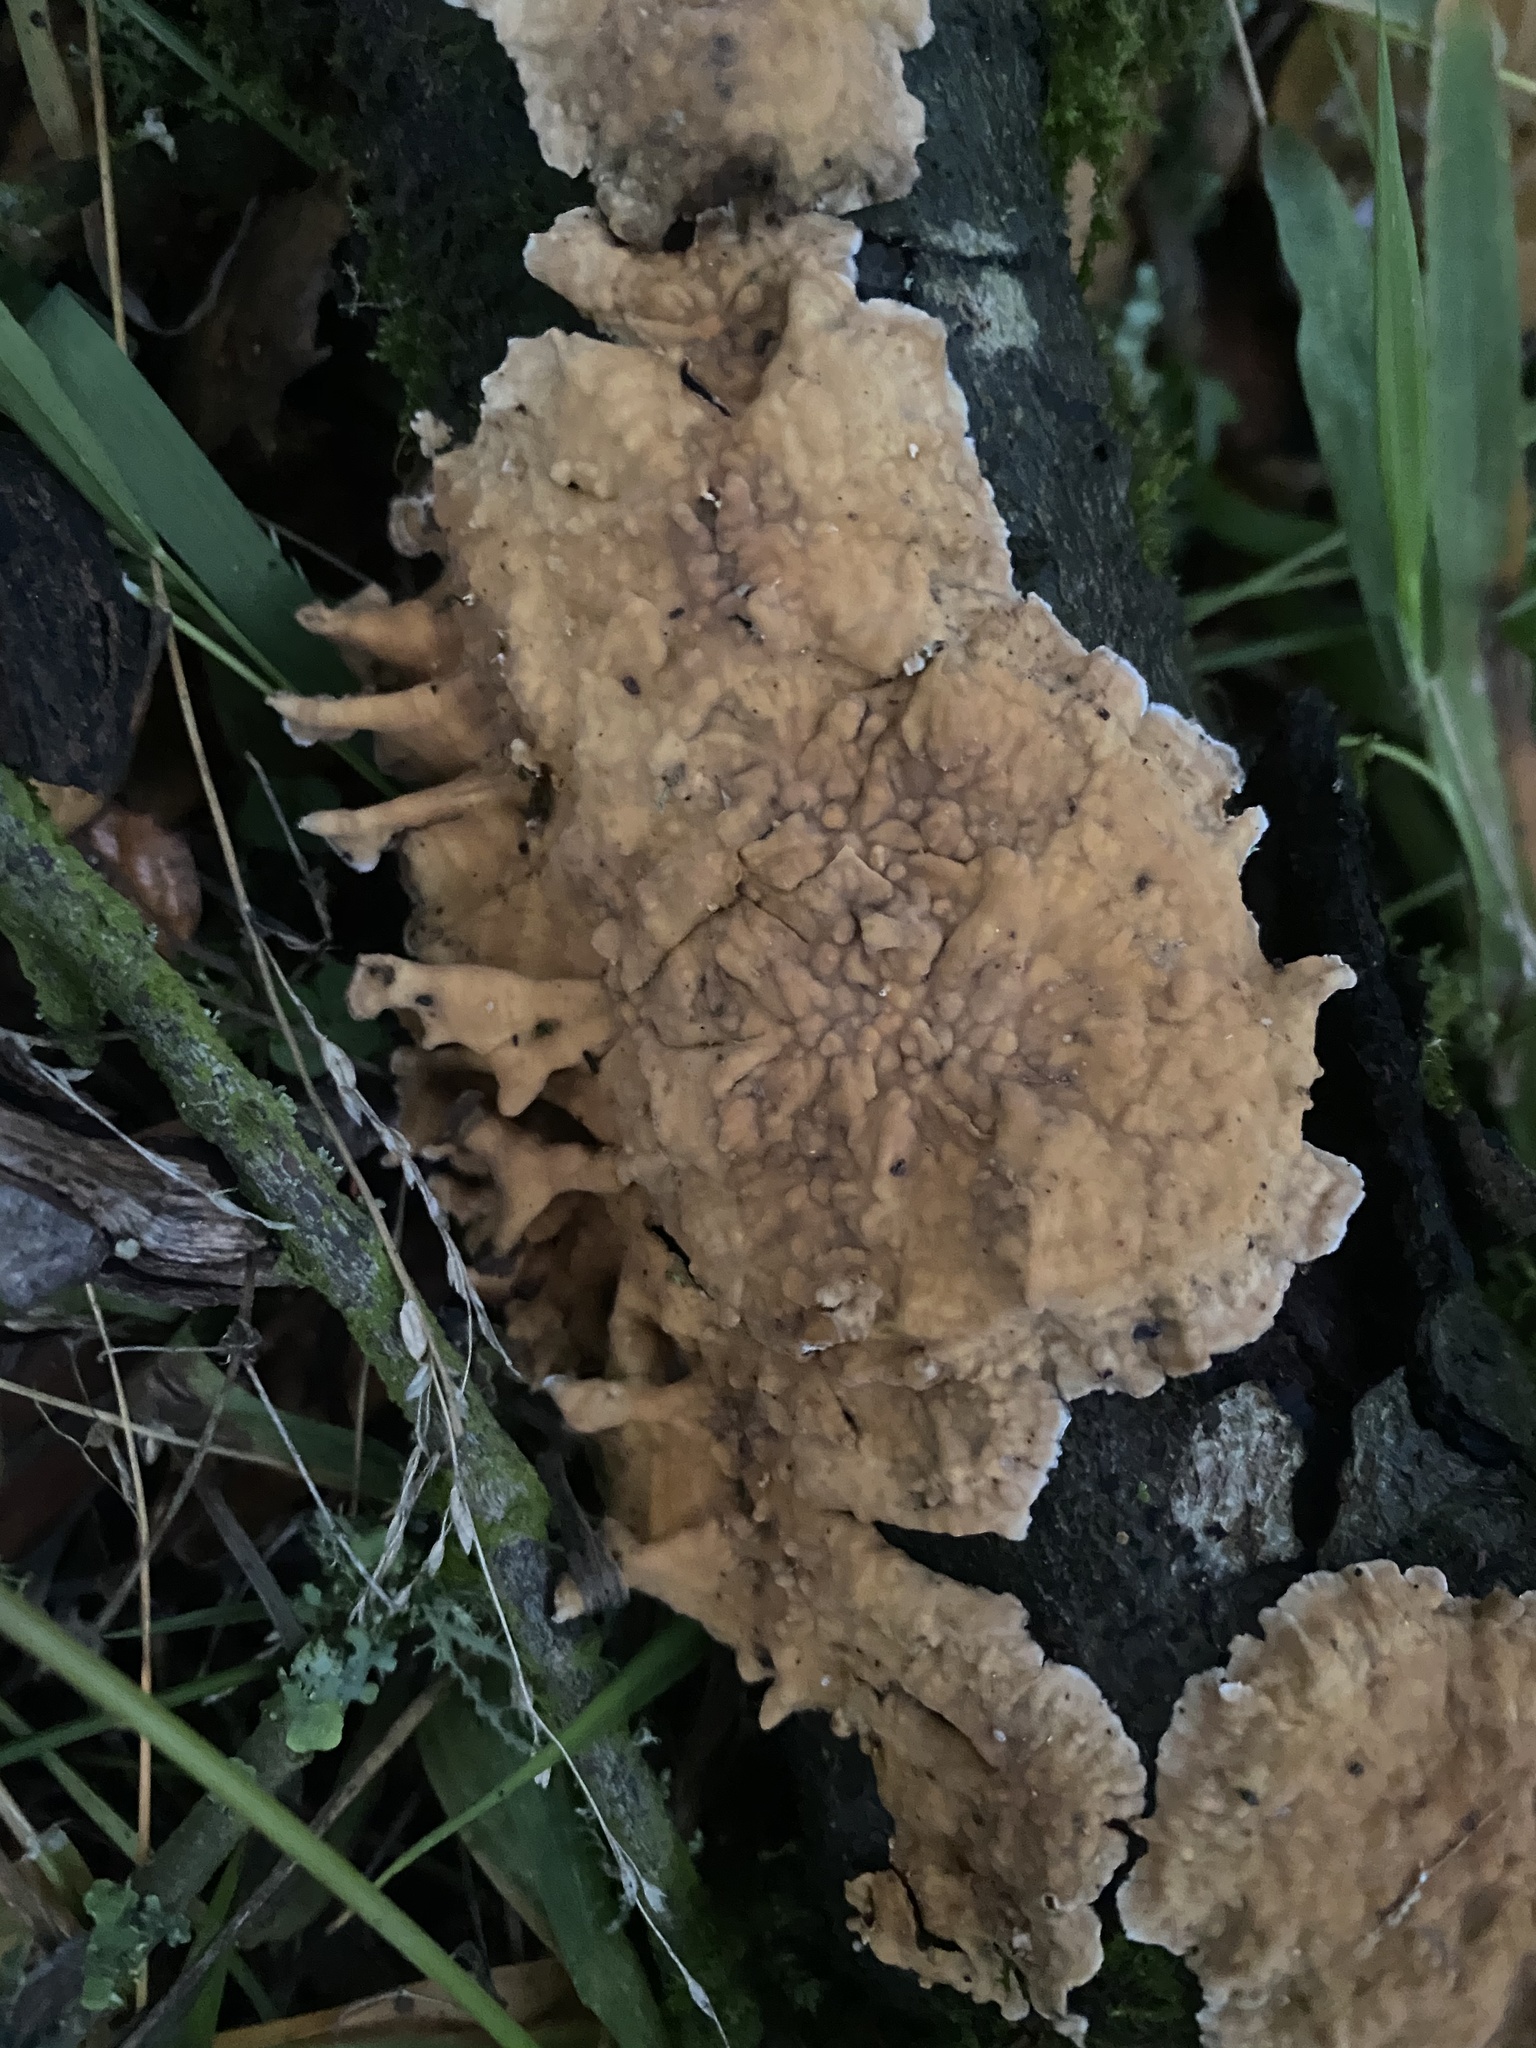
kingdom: Fungi
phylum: Basidiomycota
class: Agaricomycetes
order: Russulales
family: Stereaceae
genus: Stereum
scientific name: Stereum hirsutum
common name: Hairy curtain crust
